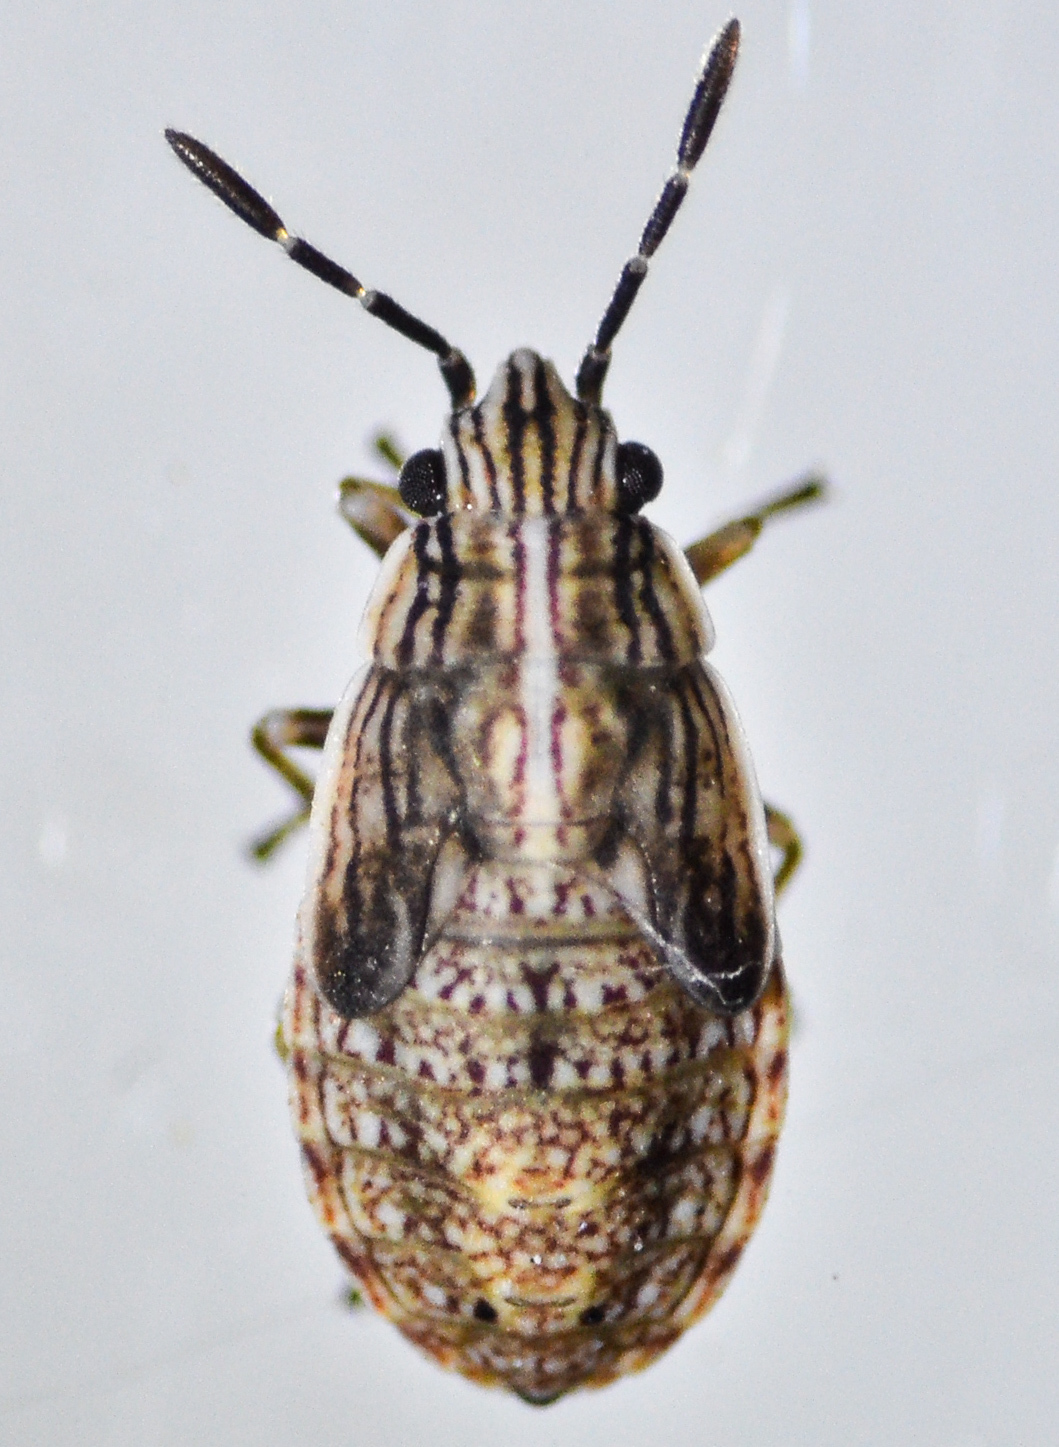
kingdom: Animalia
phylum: Arthropoda
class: Insecta
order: Hemiptera
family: Lygaeidae
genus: Nysius
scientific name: Nysius raphanus
